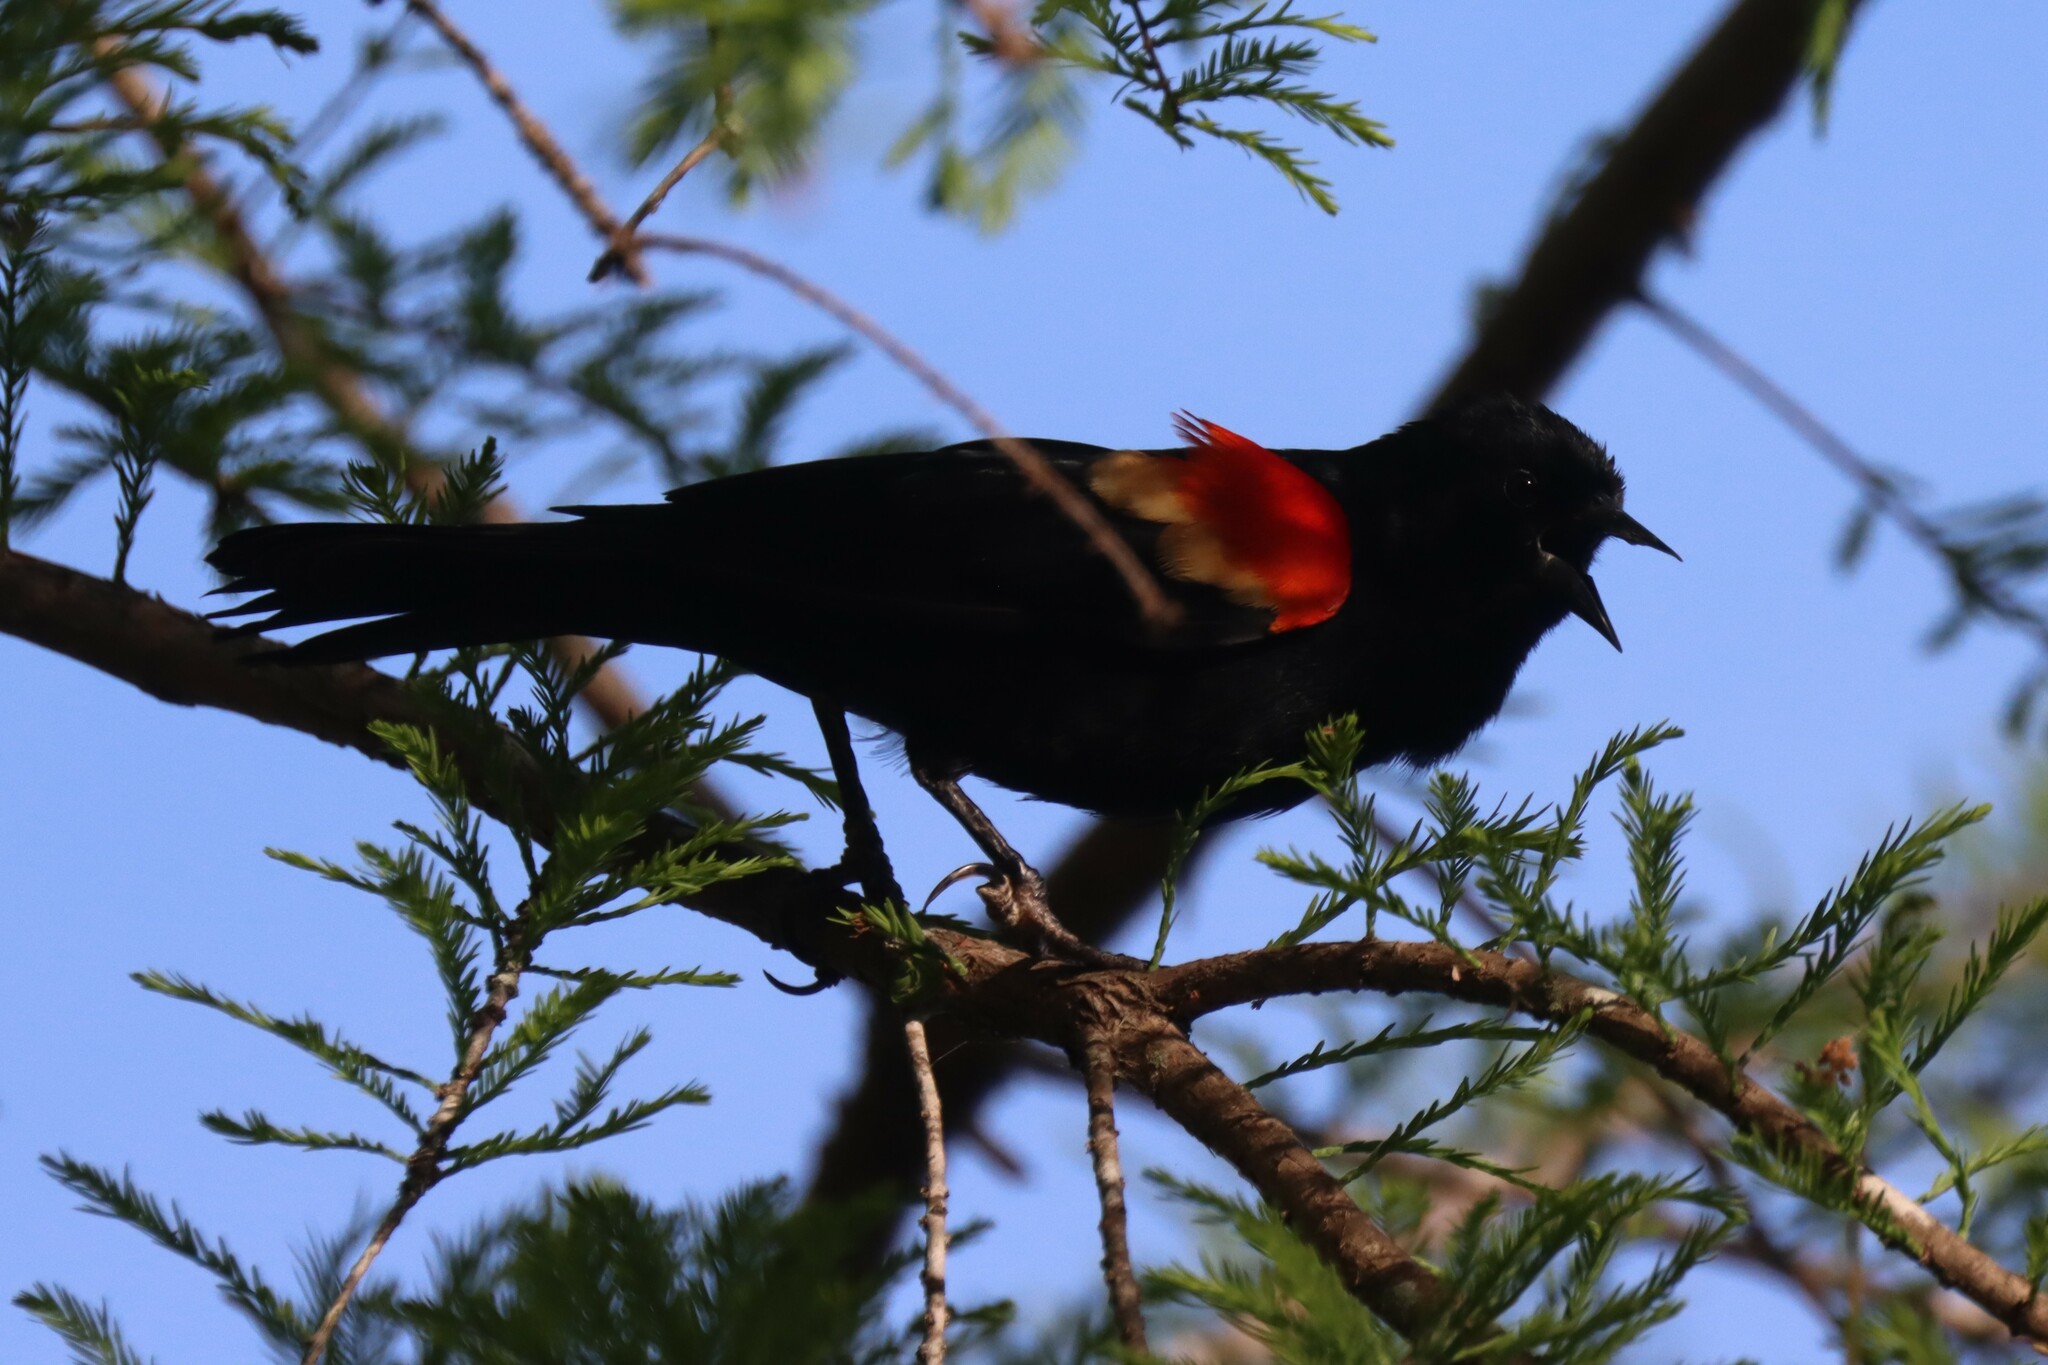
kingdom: Animalia
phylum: Chordata
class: Aves
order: Passeriformes
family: Icteridae
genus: Agelaius
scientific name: Agelaius phoeniceus
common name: Red-winged blackbird
